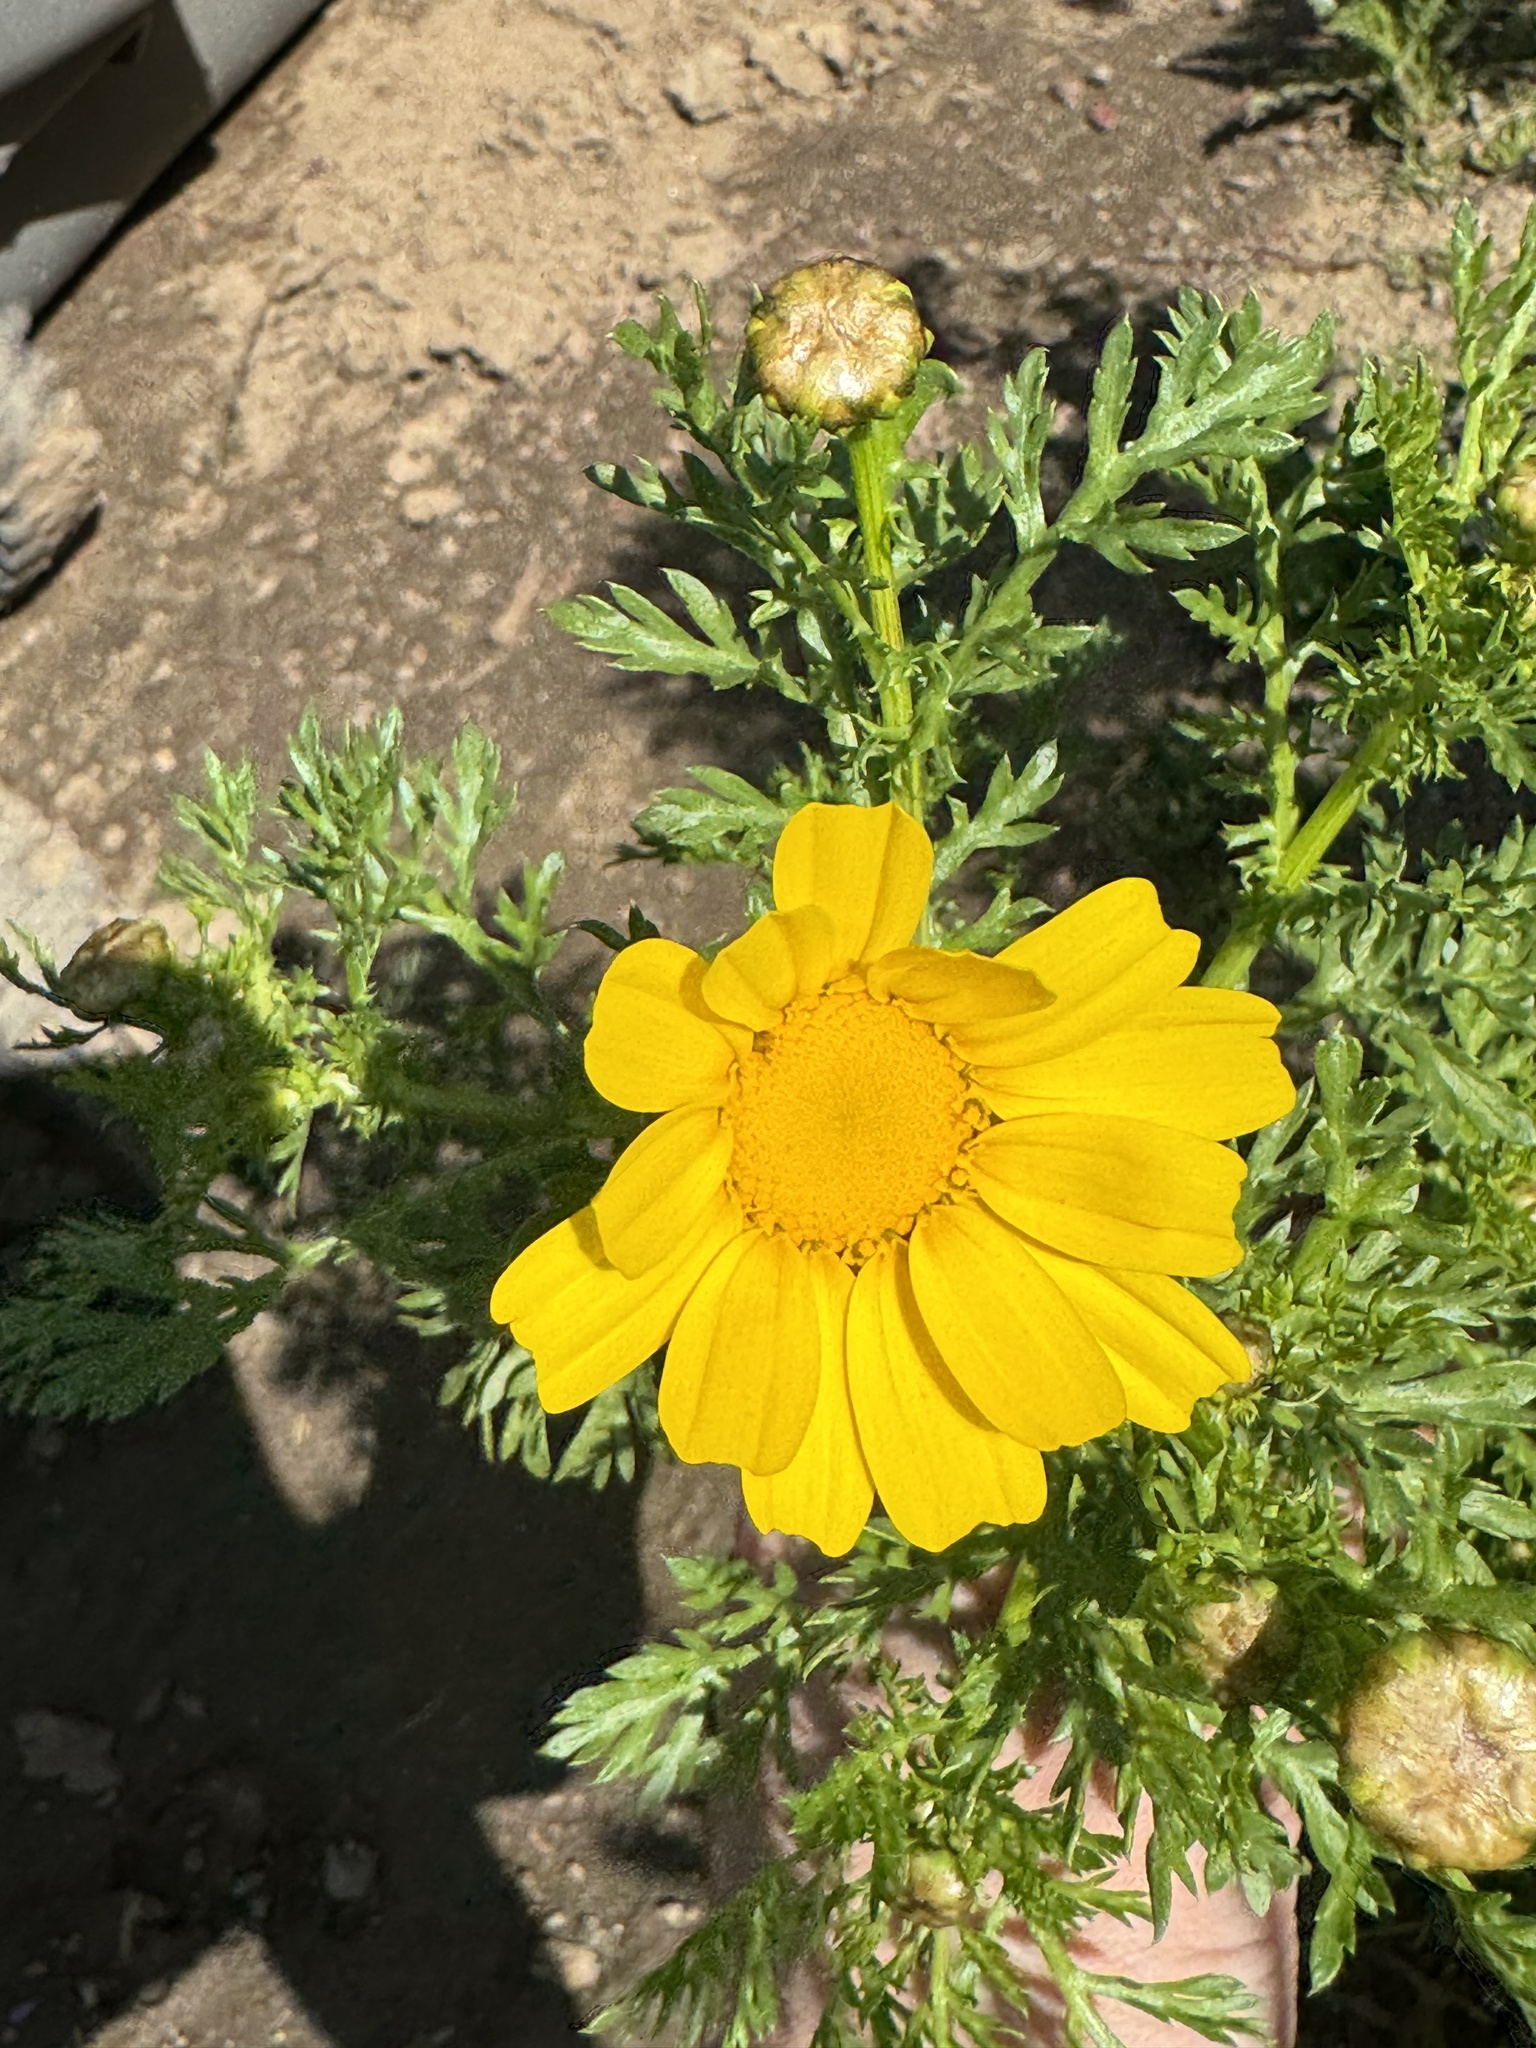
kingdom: Plantae
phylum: Tracheophyta
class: Magnoliopsida
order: Asterales
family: Asteraceae
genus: Glebionis
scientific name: Glebionis coronaria
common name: Crowndaisy
